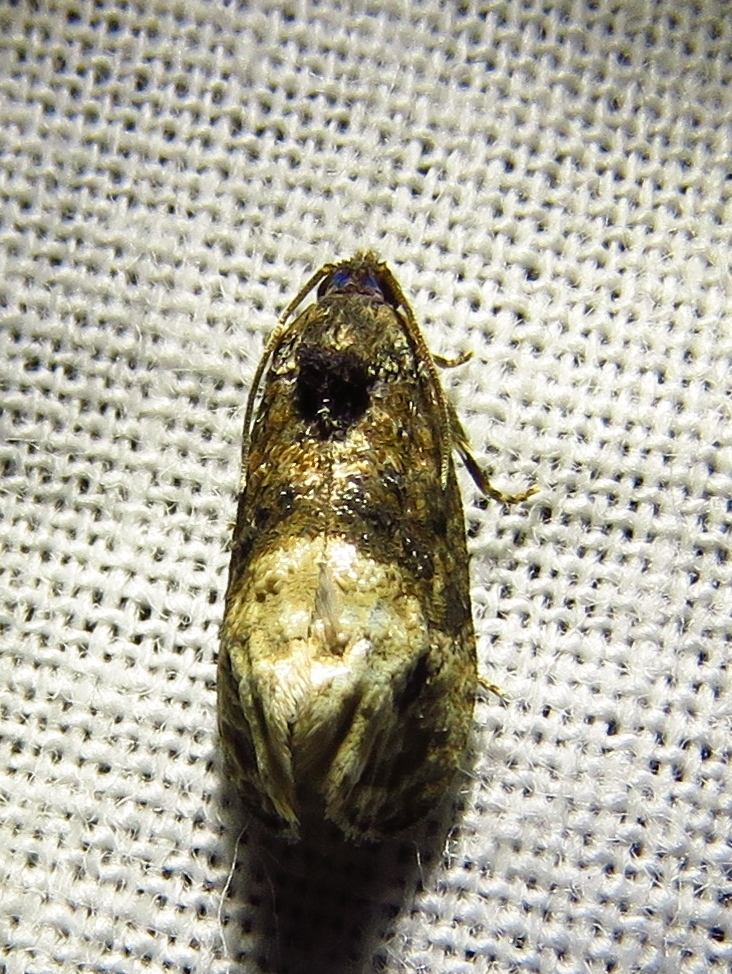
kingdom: Animalia
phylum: Arthropoda
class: Insecta
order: Lepidoptera
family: Tortricidae
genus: Ecdytolopha
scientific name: Ecdytolopha mana
